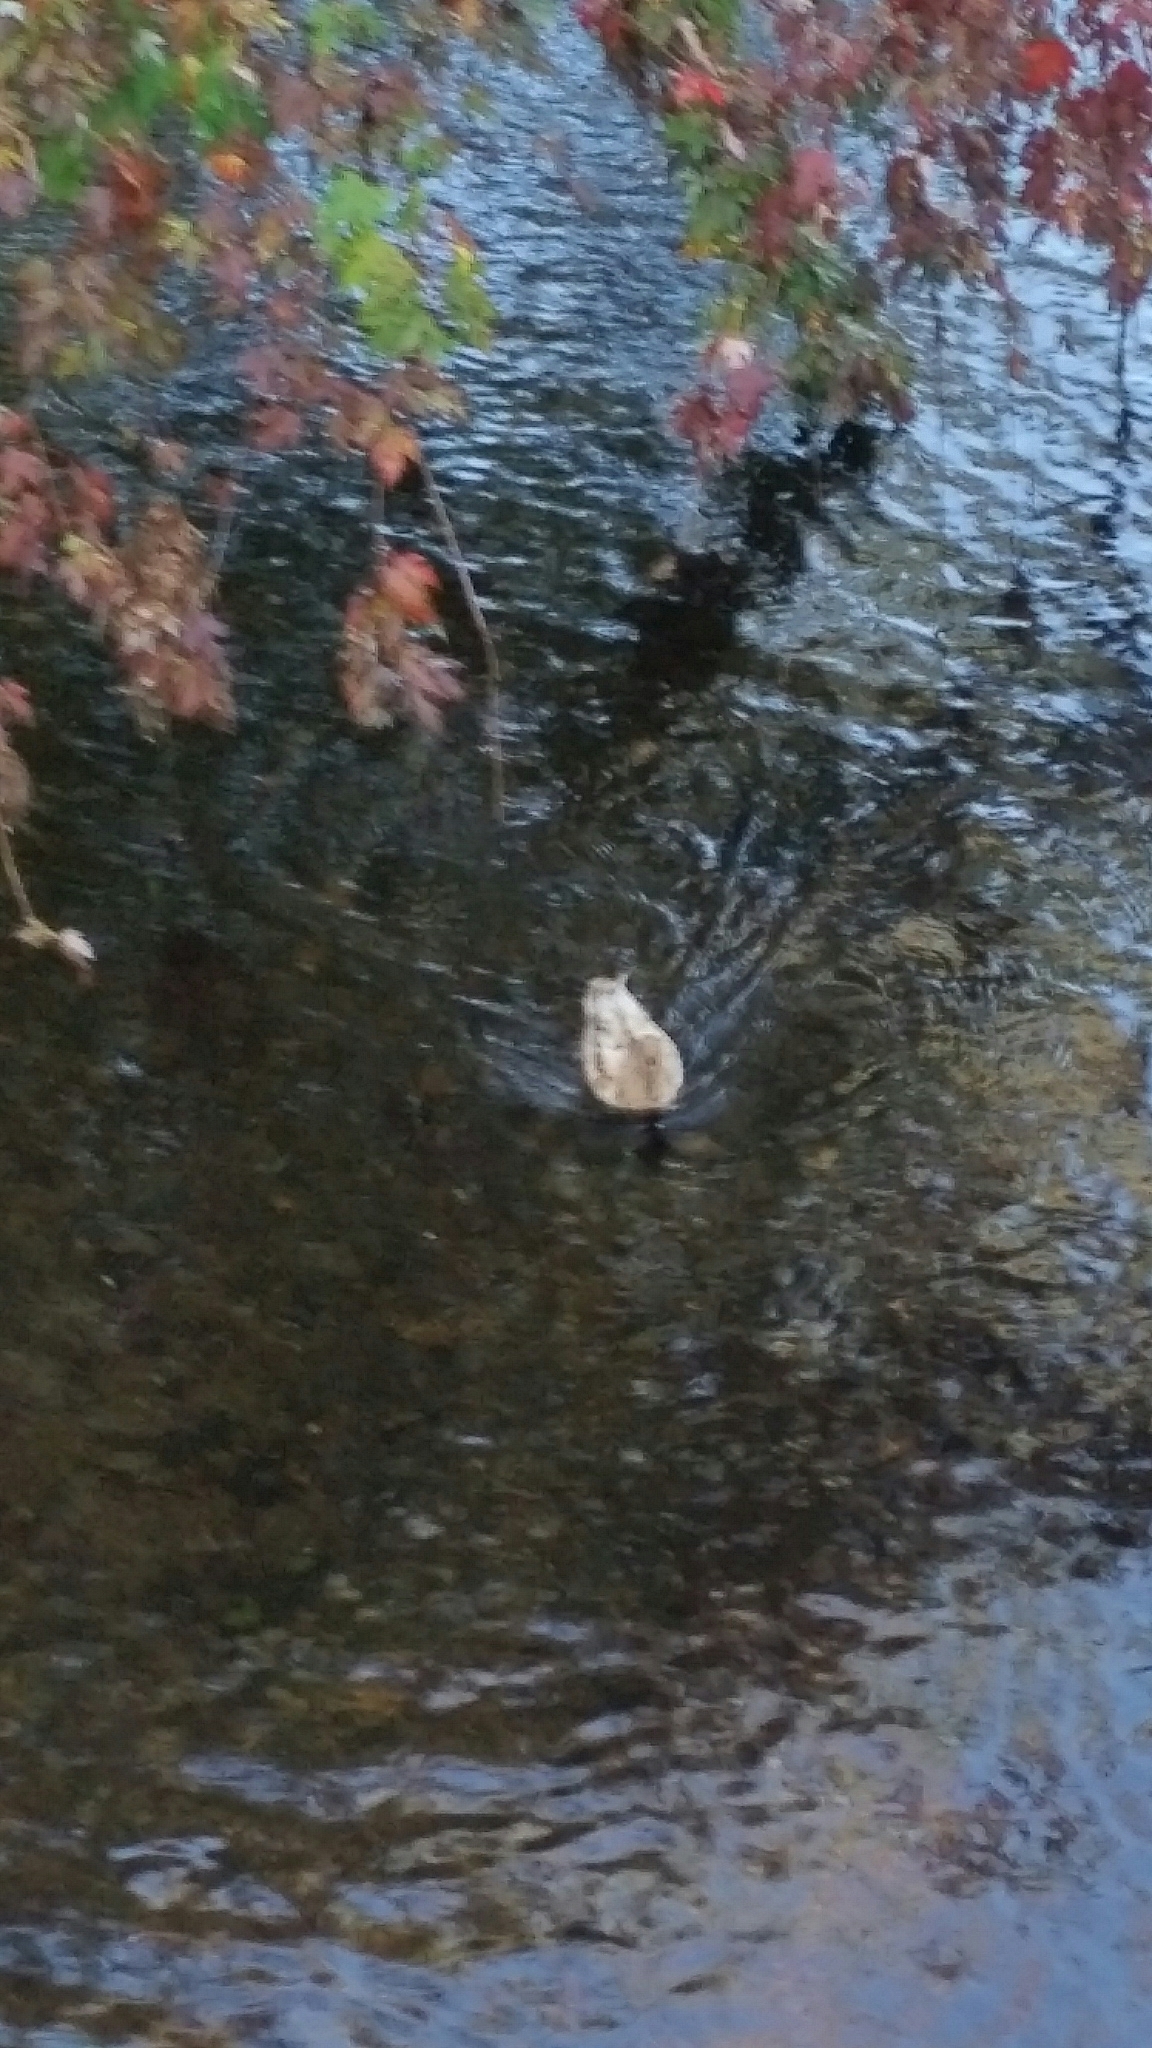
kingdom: Animalia
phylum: Chordata
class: Aves
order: Anseriformes
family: Anatidae
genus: Anas
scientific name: Anas platyrhynchos
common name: Mallard
